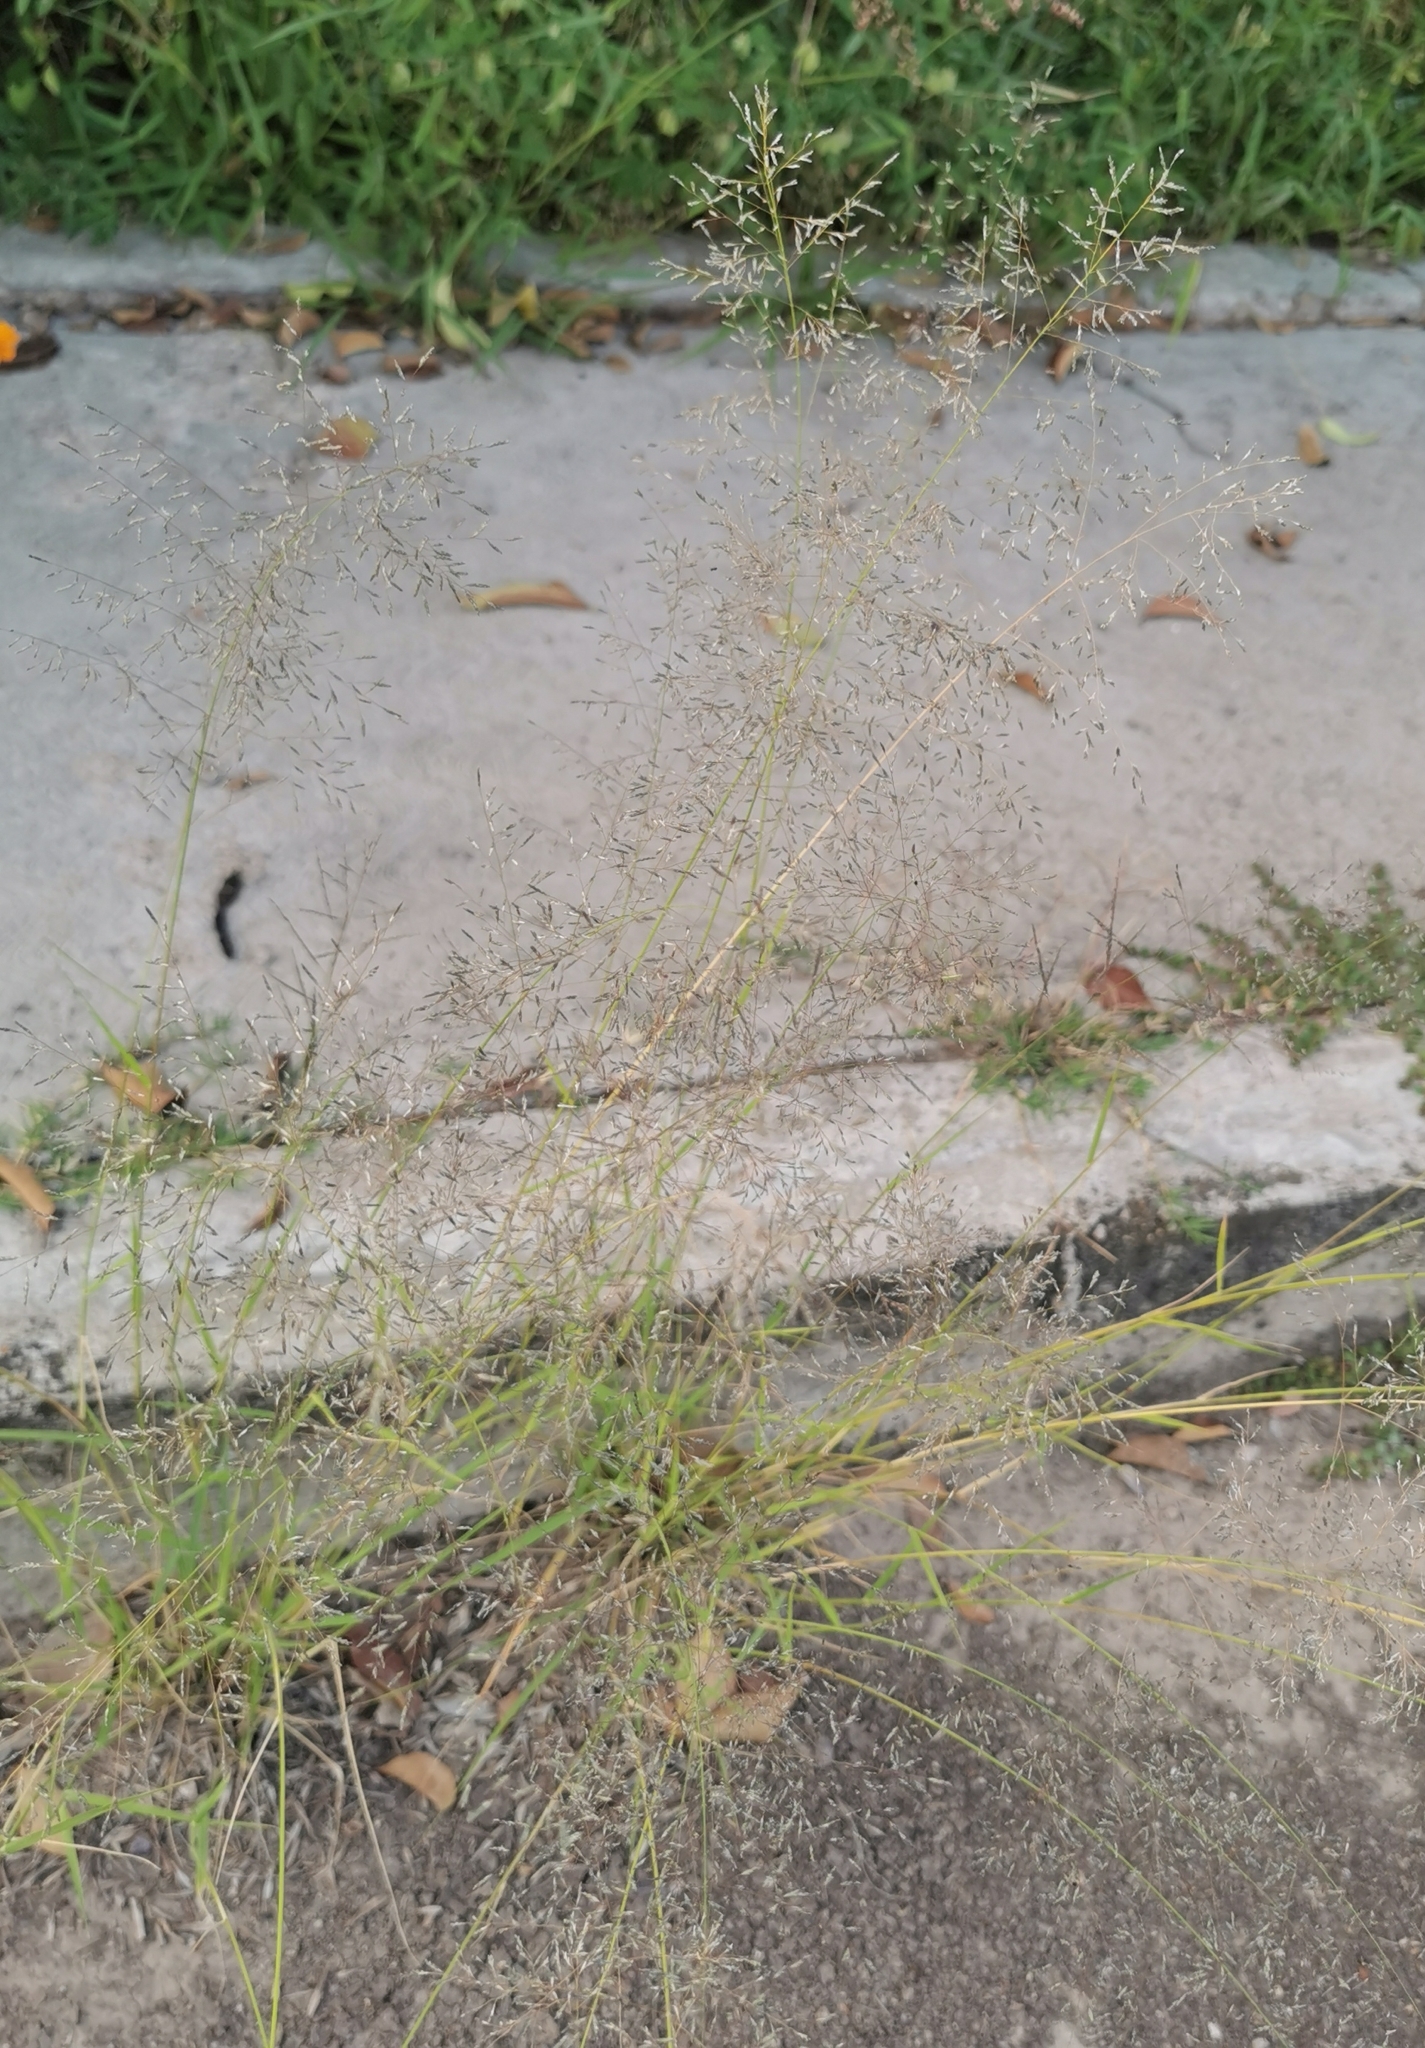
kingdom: Plantae
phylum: Tracheophyta
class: Liliopsida
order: Poales
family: Poaceae
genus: Eragrostis
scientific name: Eragrostis lehmanniana
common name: Lehmann lovegrass
